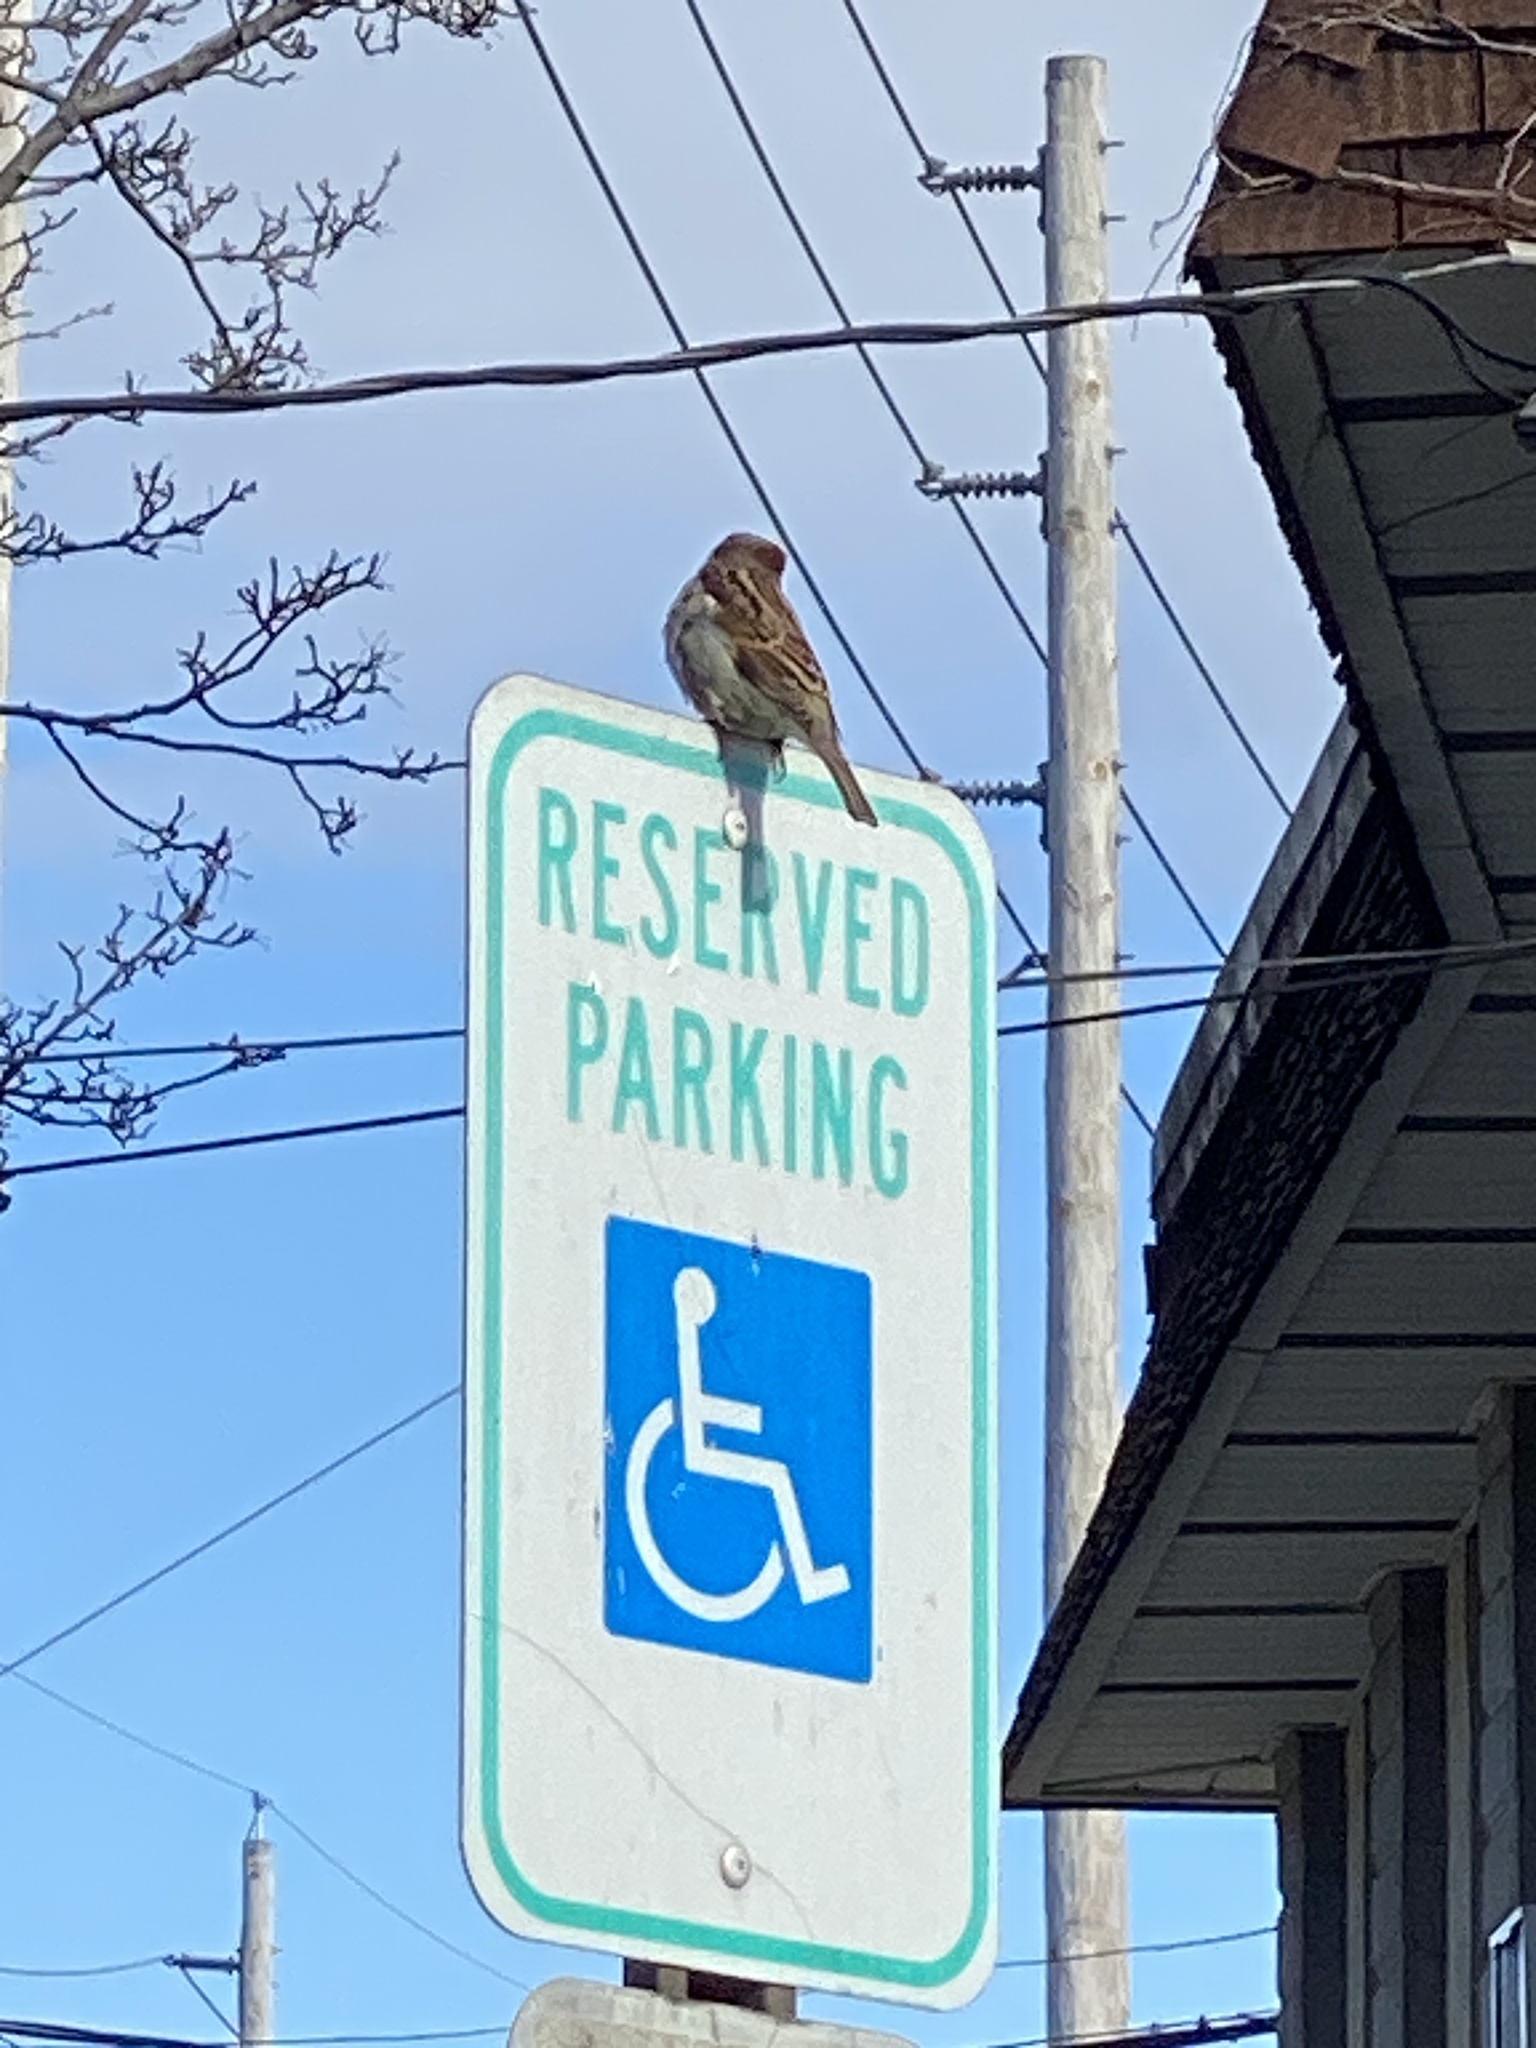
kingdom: Animalia
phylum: Chordata
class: Aves
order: Passeriformes
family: Passeridae
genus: Passer
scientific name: Passer domesticus
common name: House sparrow
